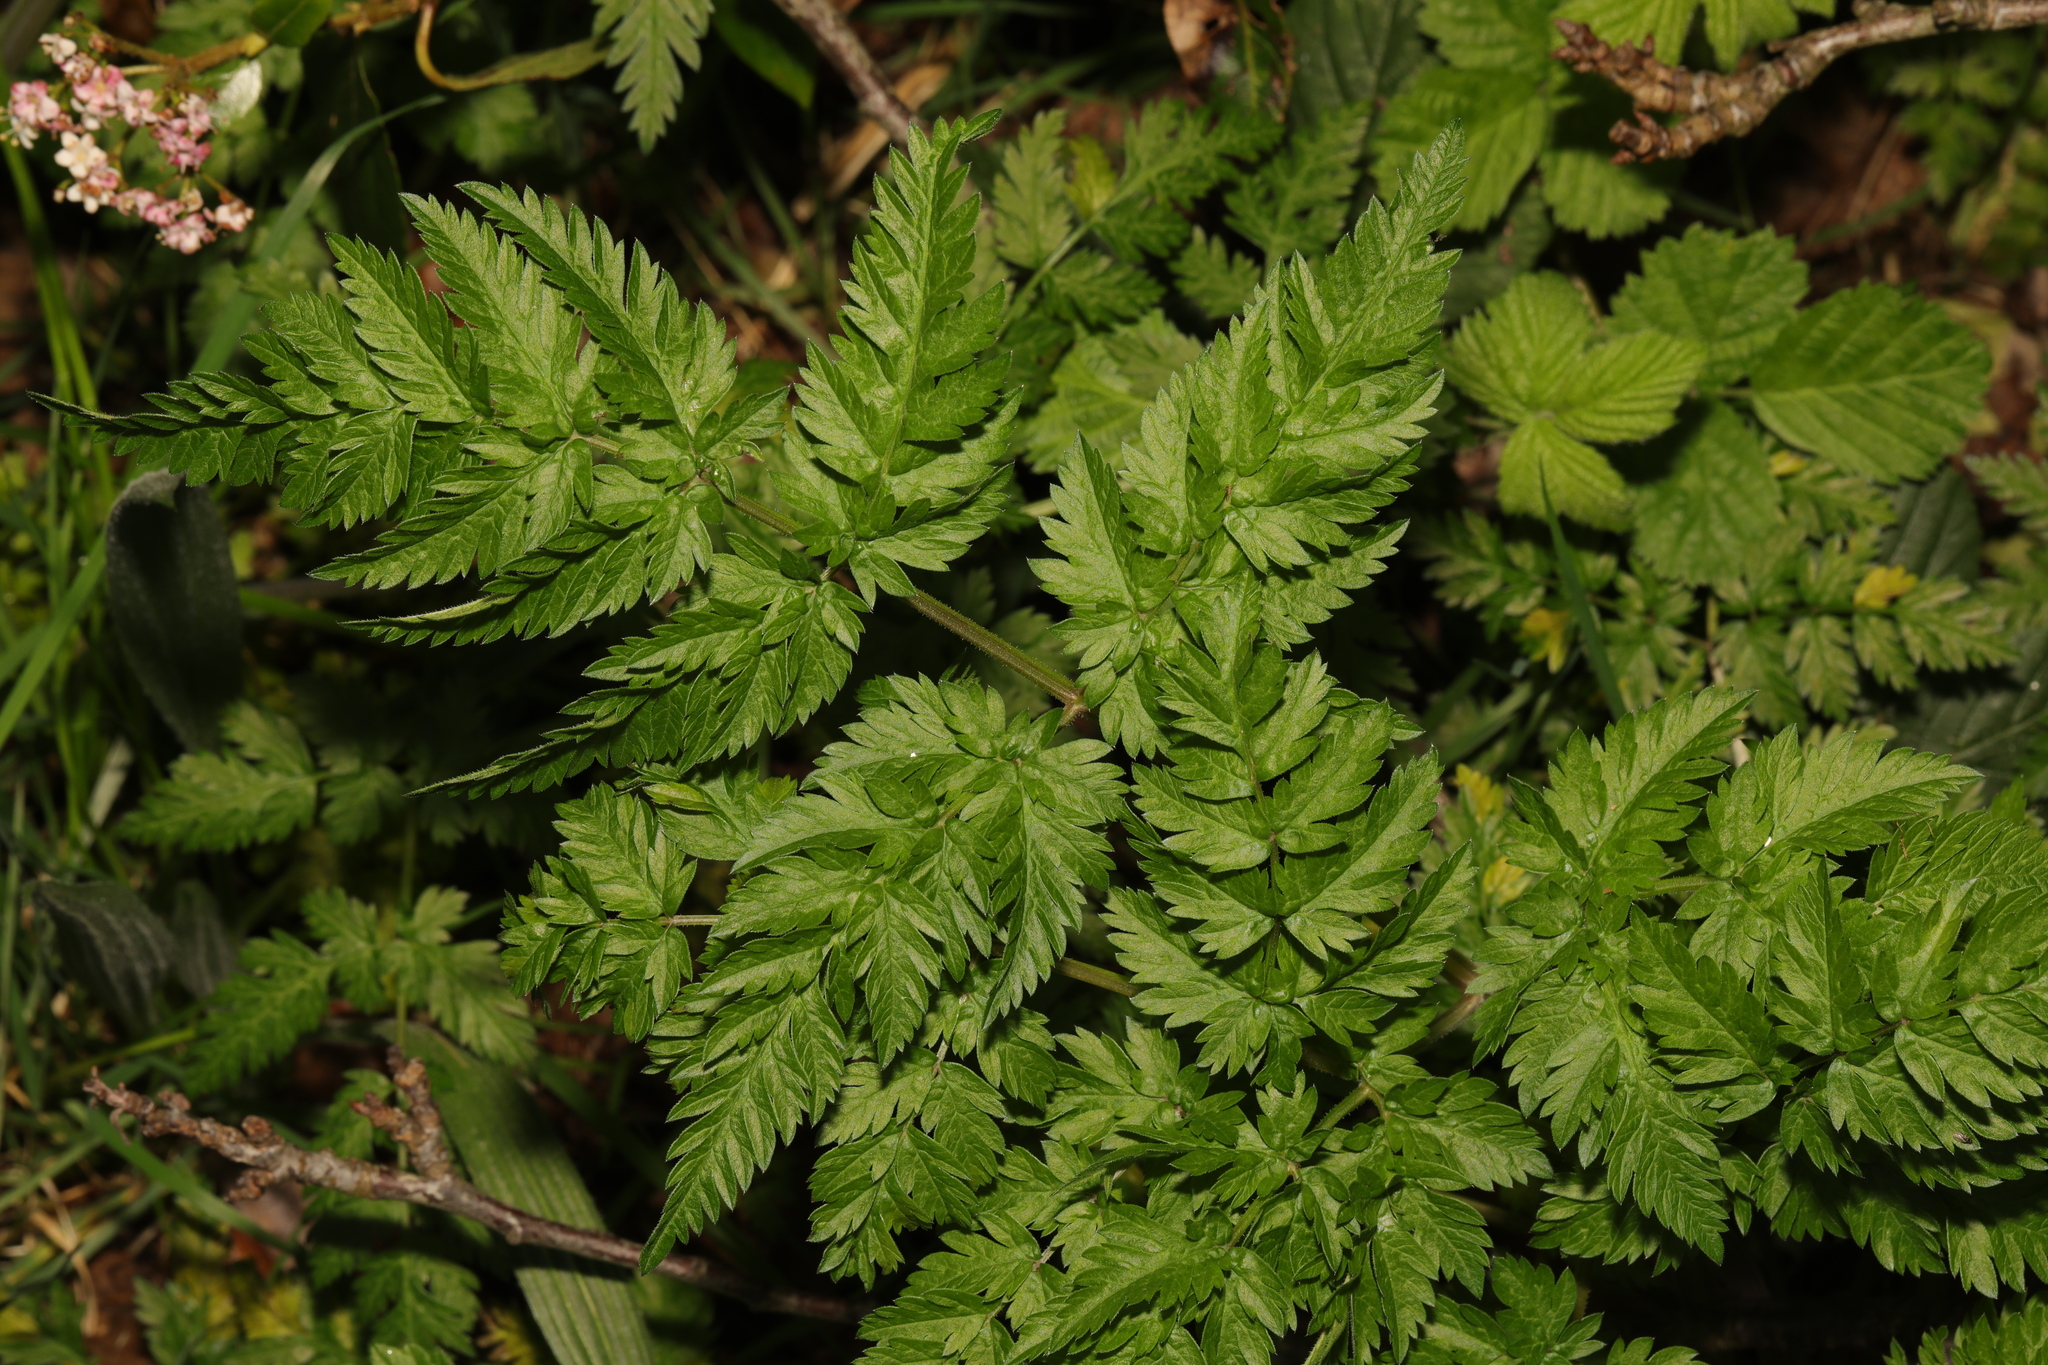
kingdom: Plantae
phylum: Tracheophyta
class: Magnoliopsida
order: Apiales
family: Apiaceae
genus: Anthriscus
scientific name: Anthriscus sylvestris
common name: Cow parsley
